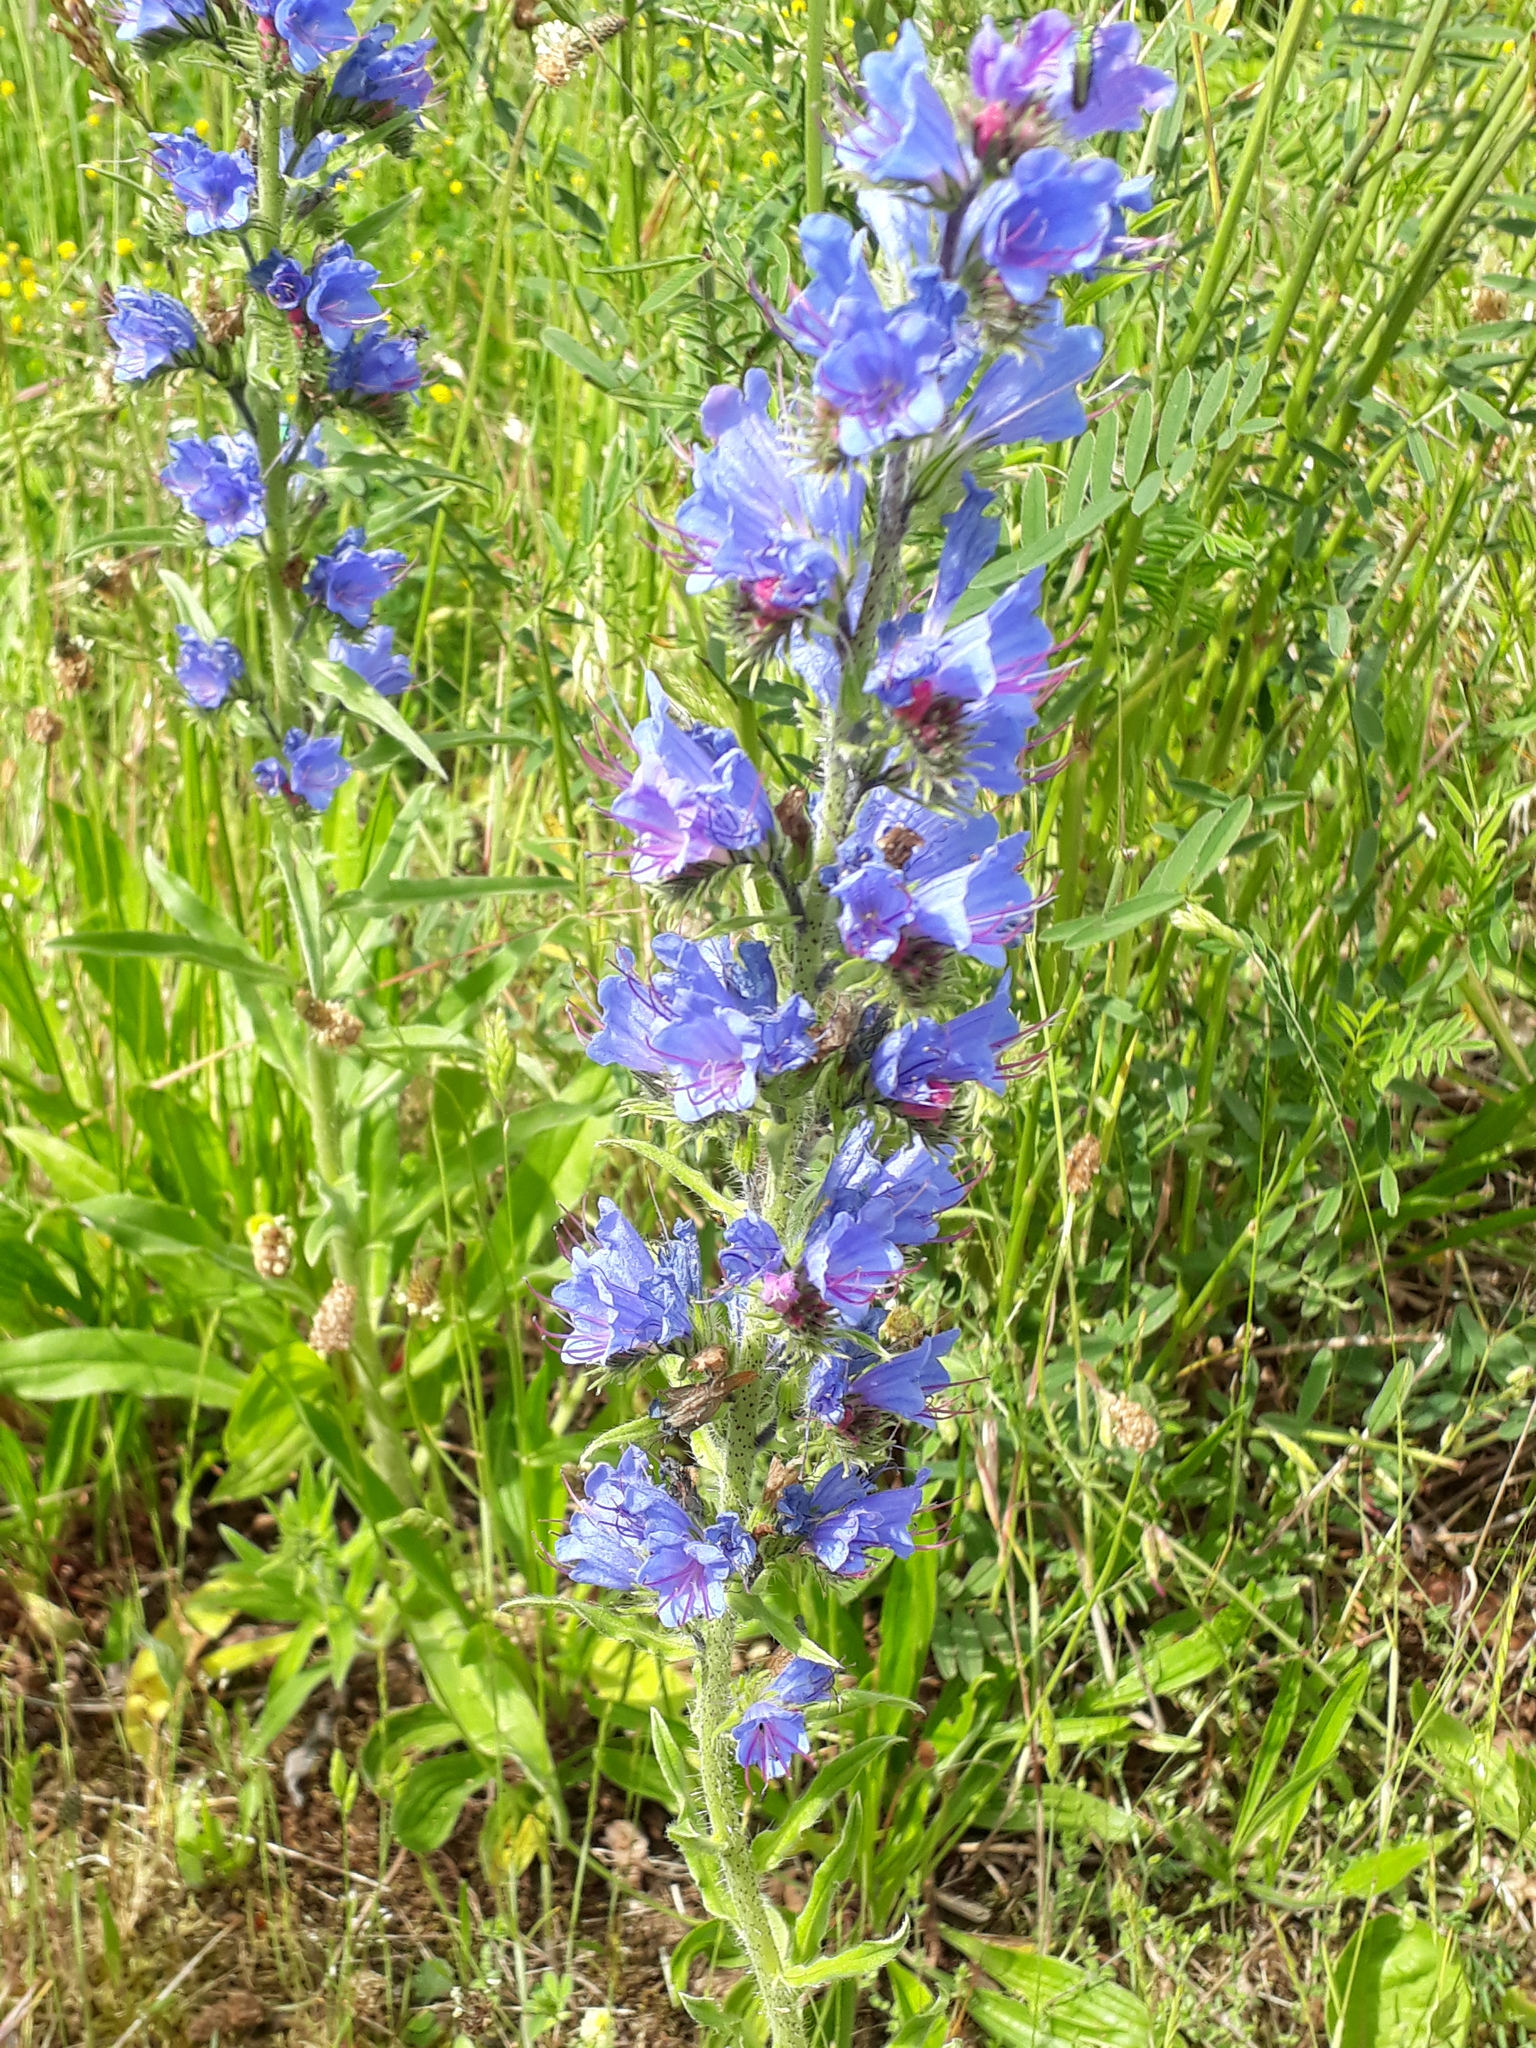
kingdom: Plantae
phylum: Tracheophyta
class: Magnoliopsida
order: Boraginales
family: Boraginaceae
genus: Echium
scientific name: Echium vulgare
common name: Common viper's bugloss
